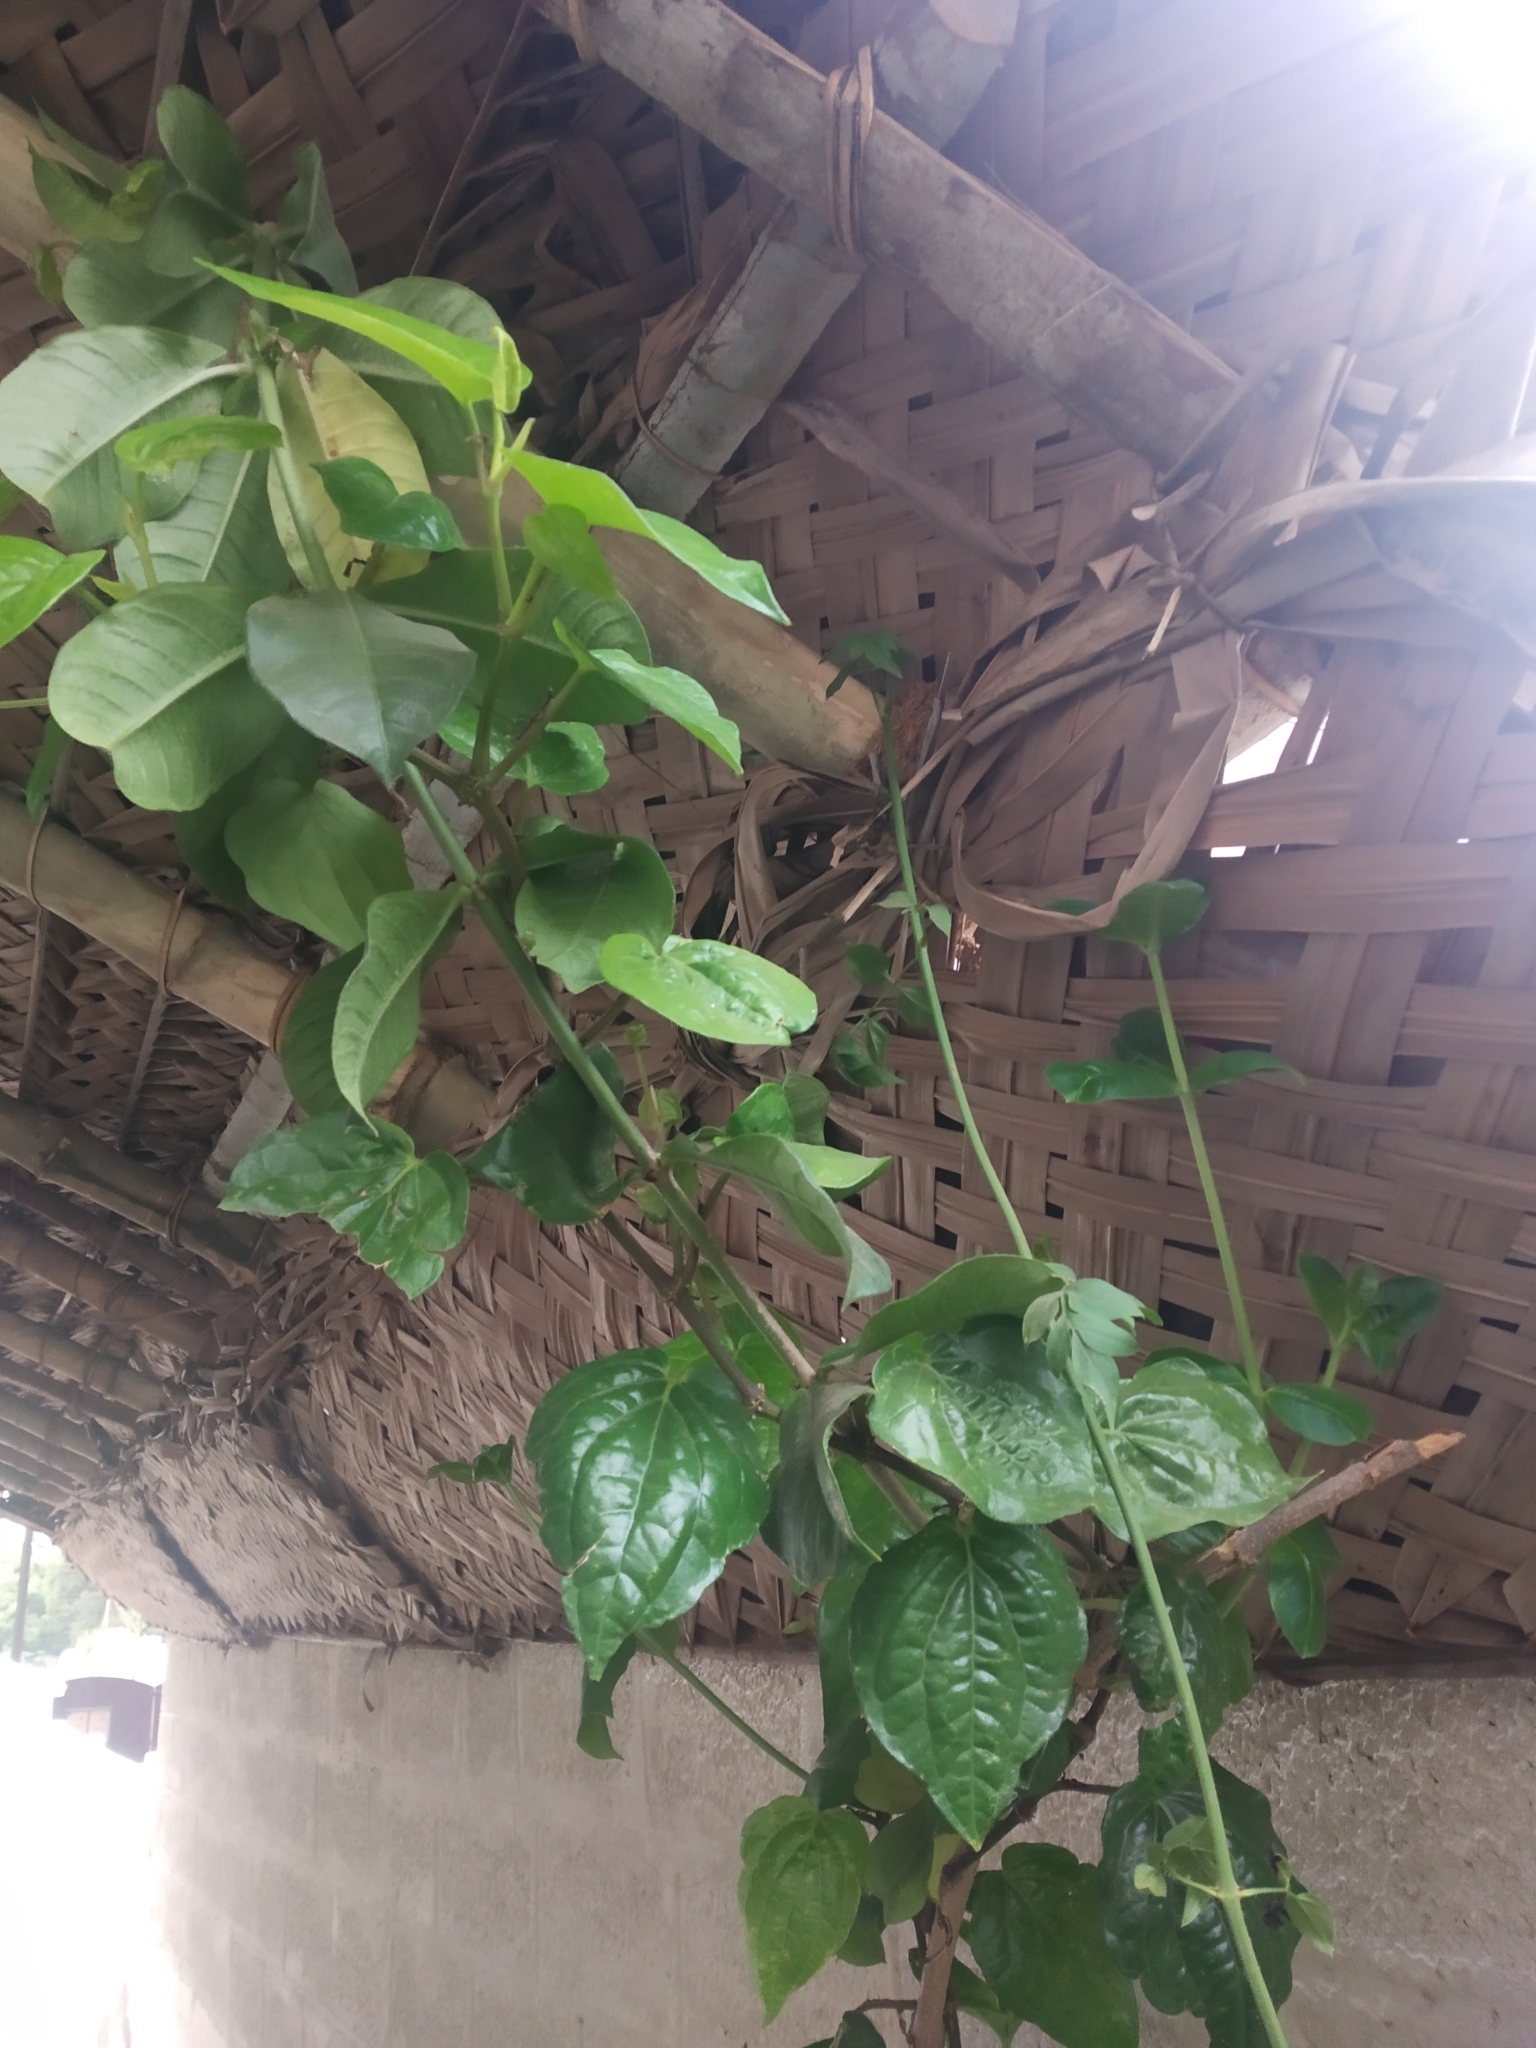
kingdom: Plantae
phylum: Tracheophyta
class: Magnoliopsida
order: Piperales
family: Piperaceae
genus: Piper
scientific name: Piper betle
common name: Betel pepper
